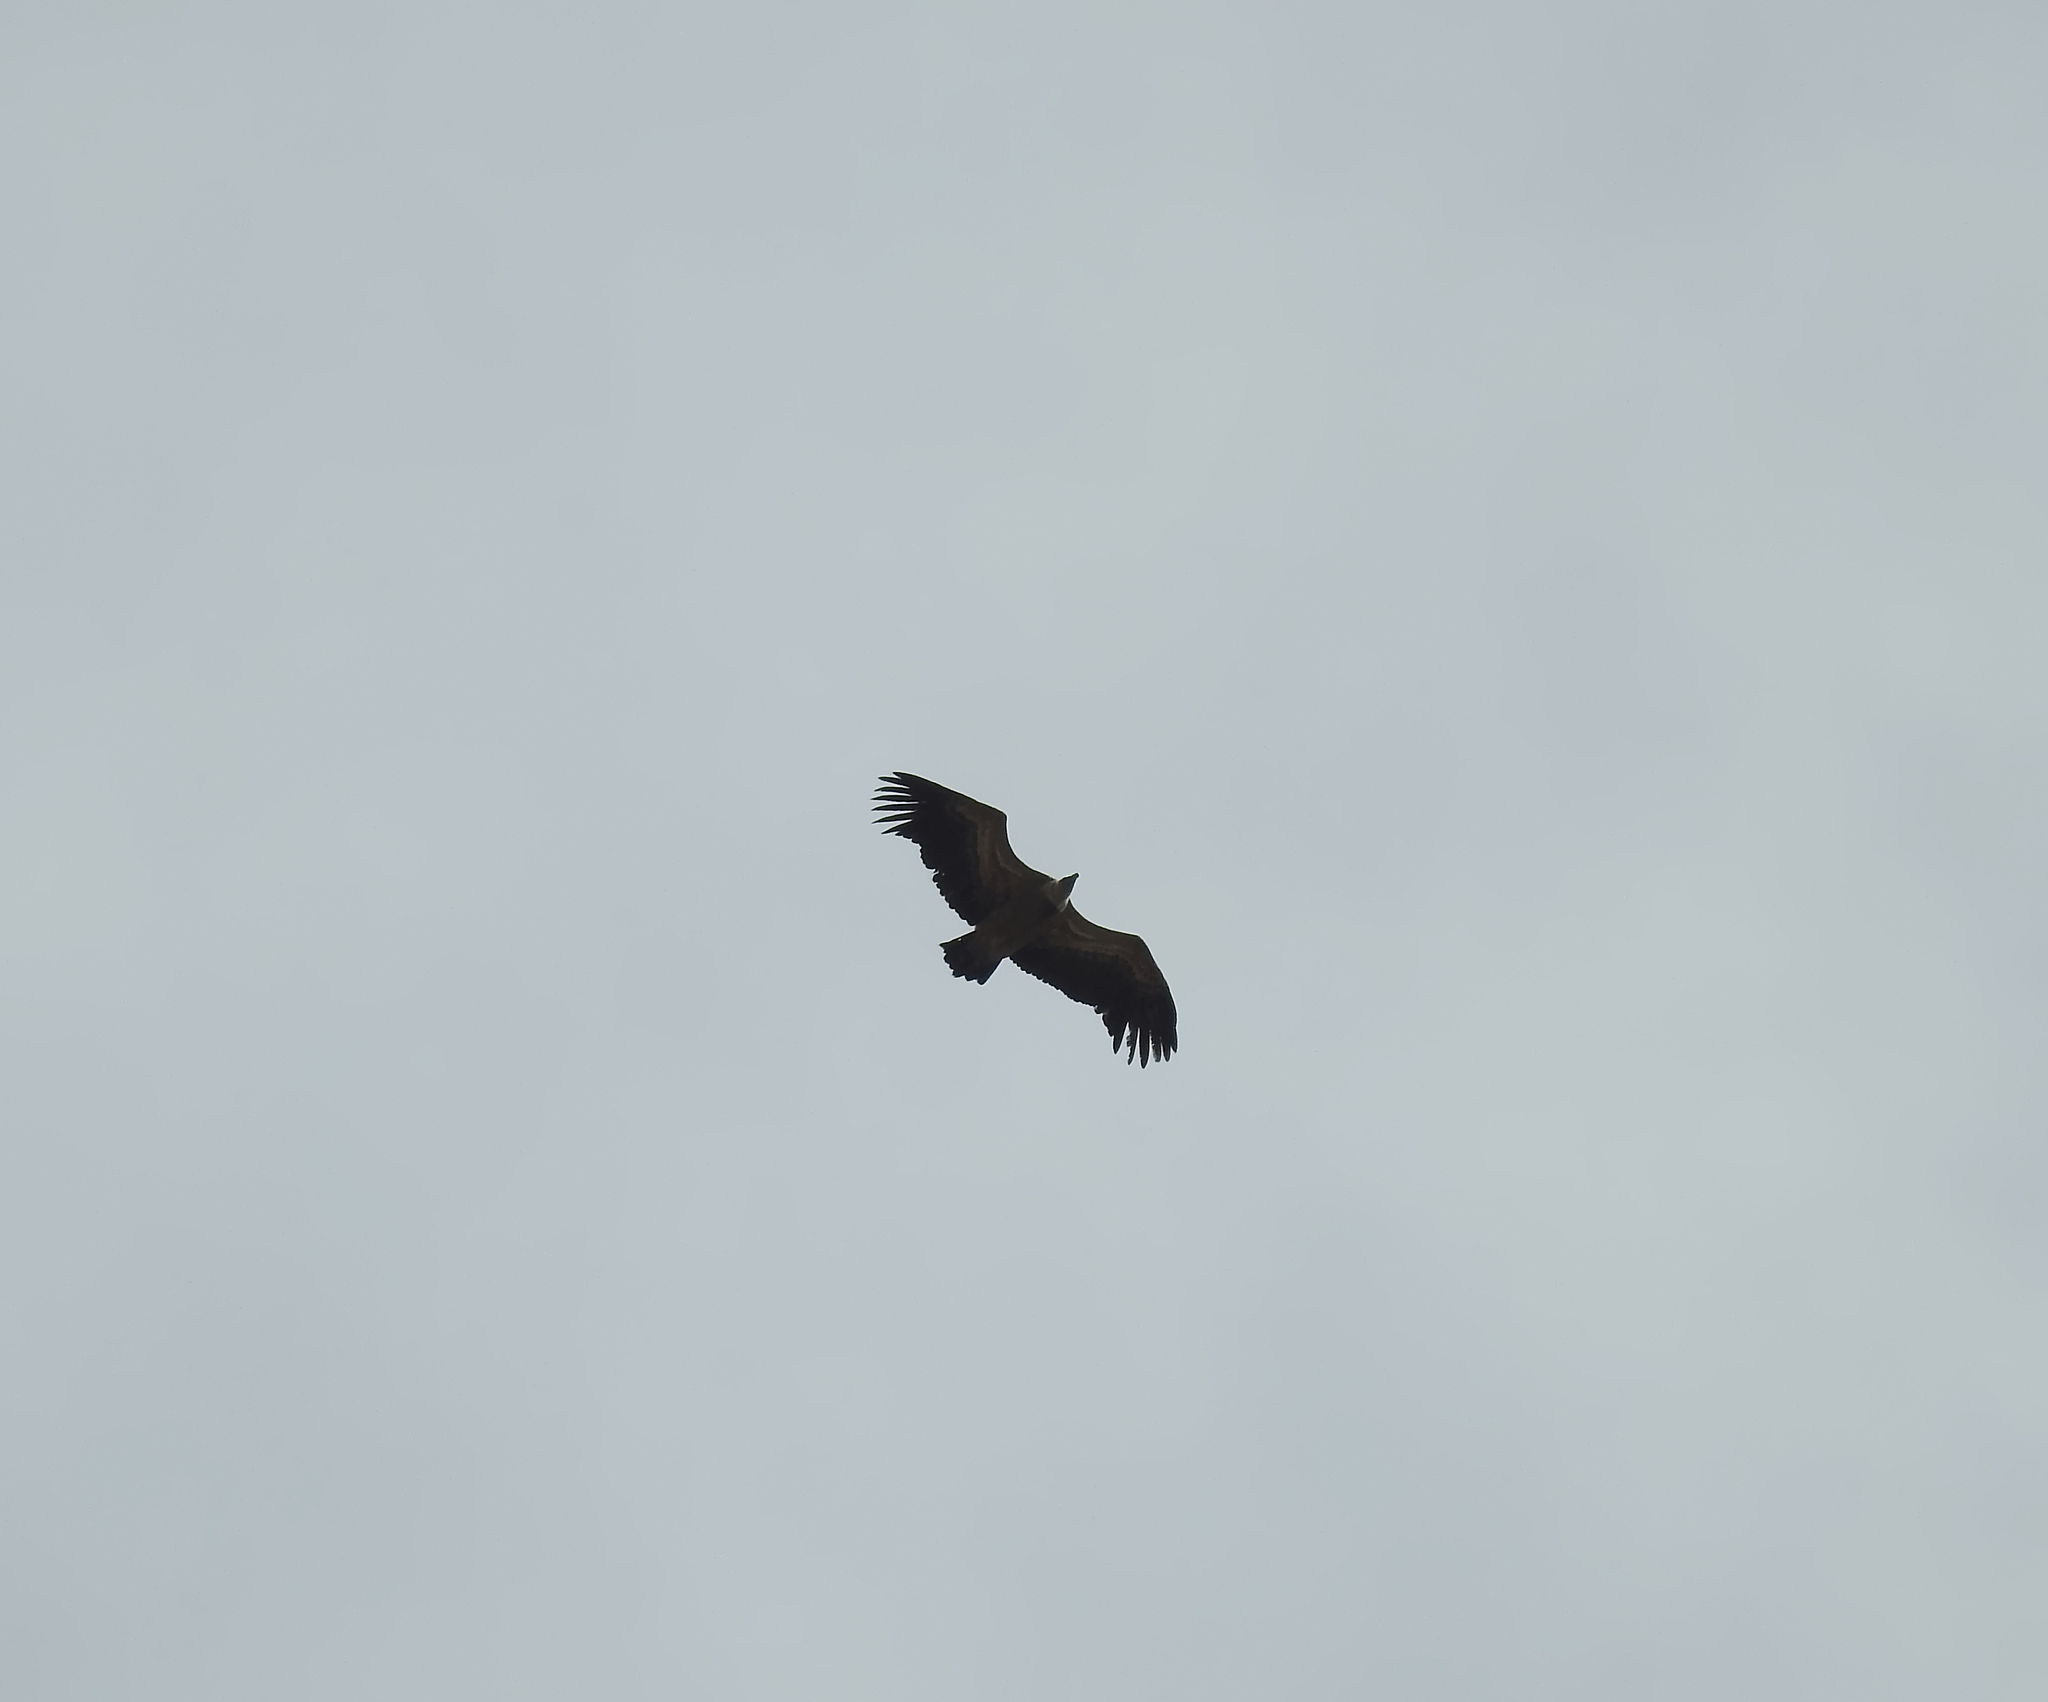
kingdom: Animalia
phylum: Chordata
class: Aves
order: Accipitriformes
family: Accipitridae
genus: Gyps
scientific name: Gyps fulvus
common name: Griffon vulture
